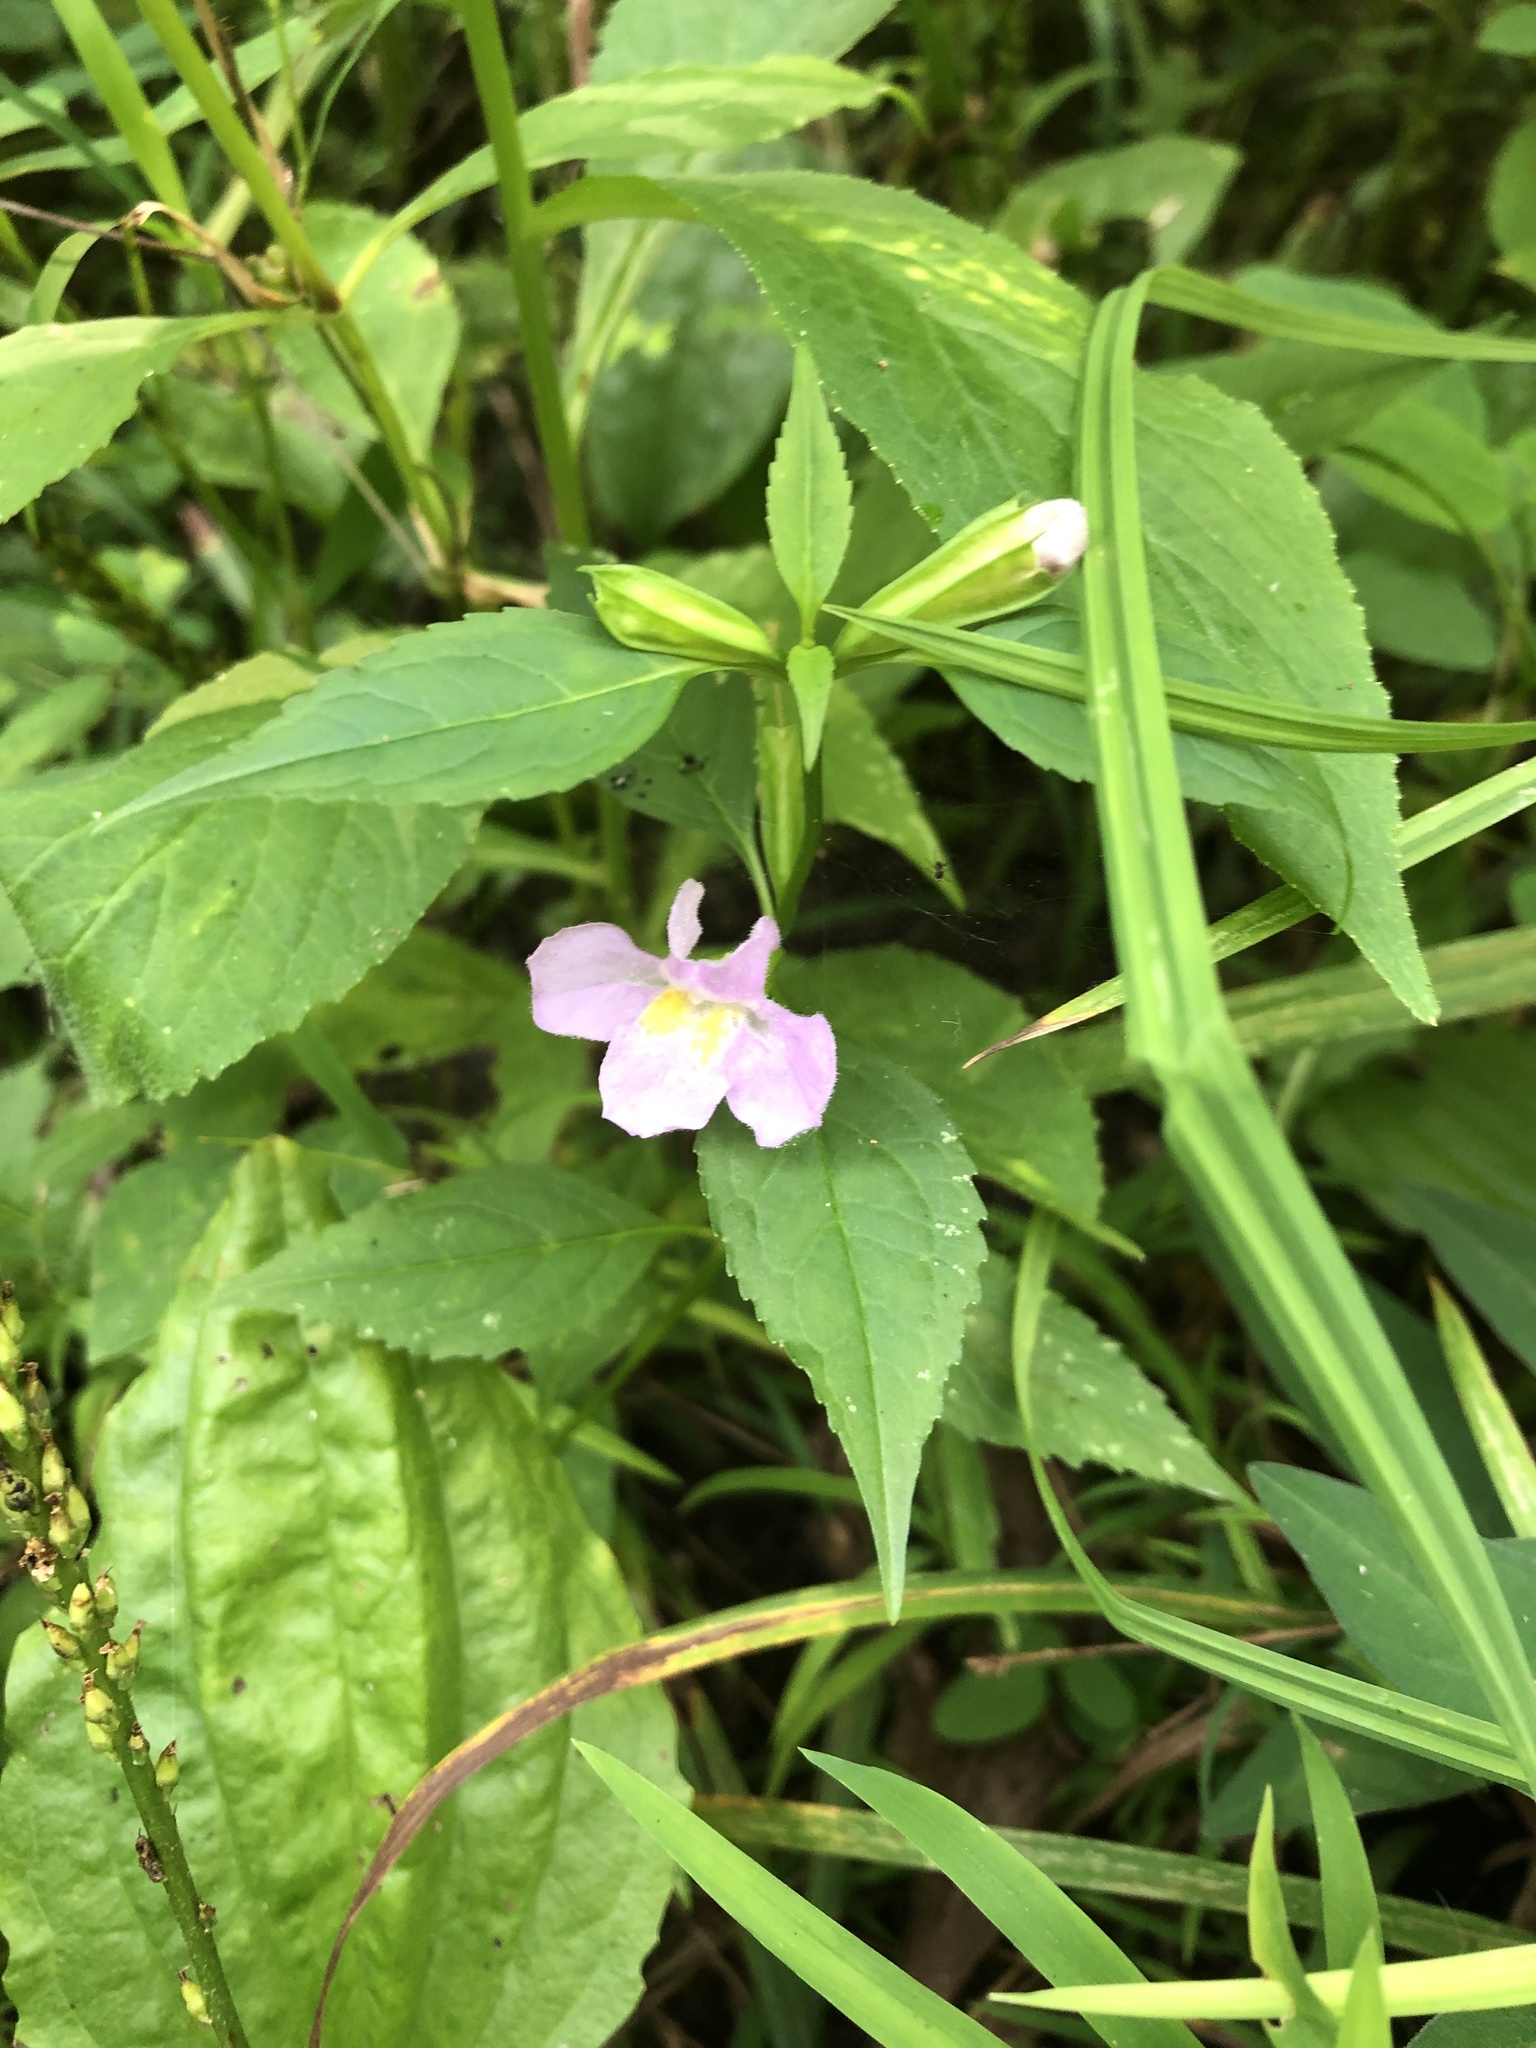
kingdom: Plantae
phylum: Tracheophyta
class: Magnoliopsida
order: Lamiales
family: Phrymaceae
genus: Mimulus
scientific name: Mimulus alatus
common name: Sharp-wing monkey-flower
